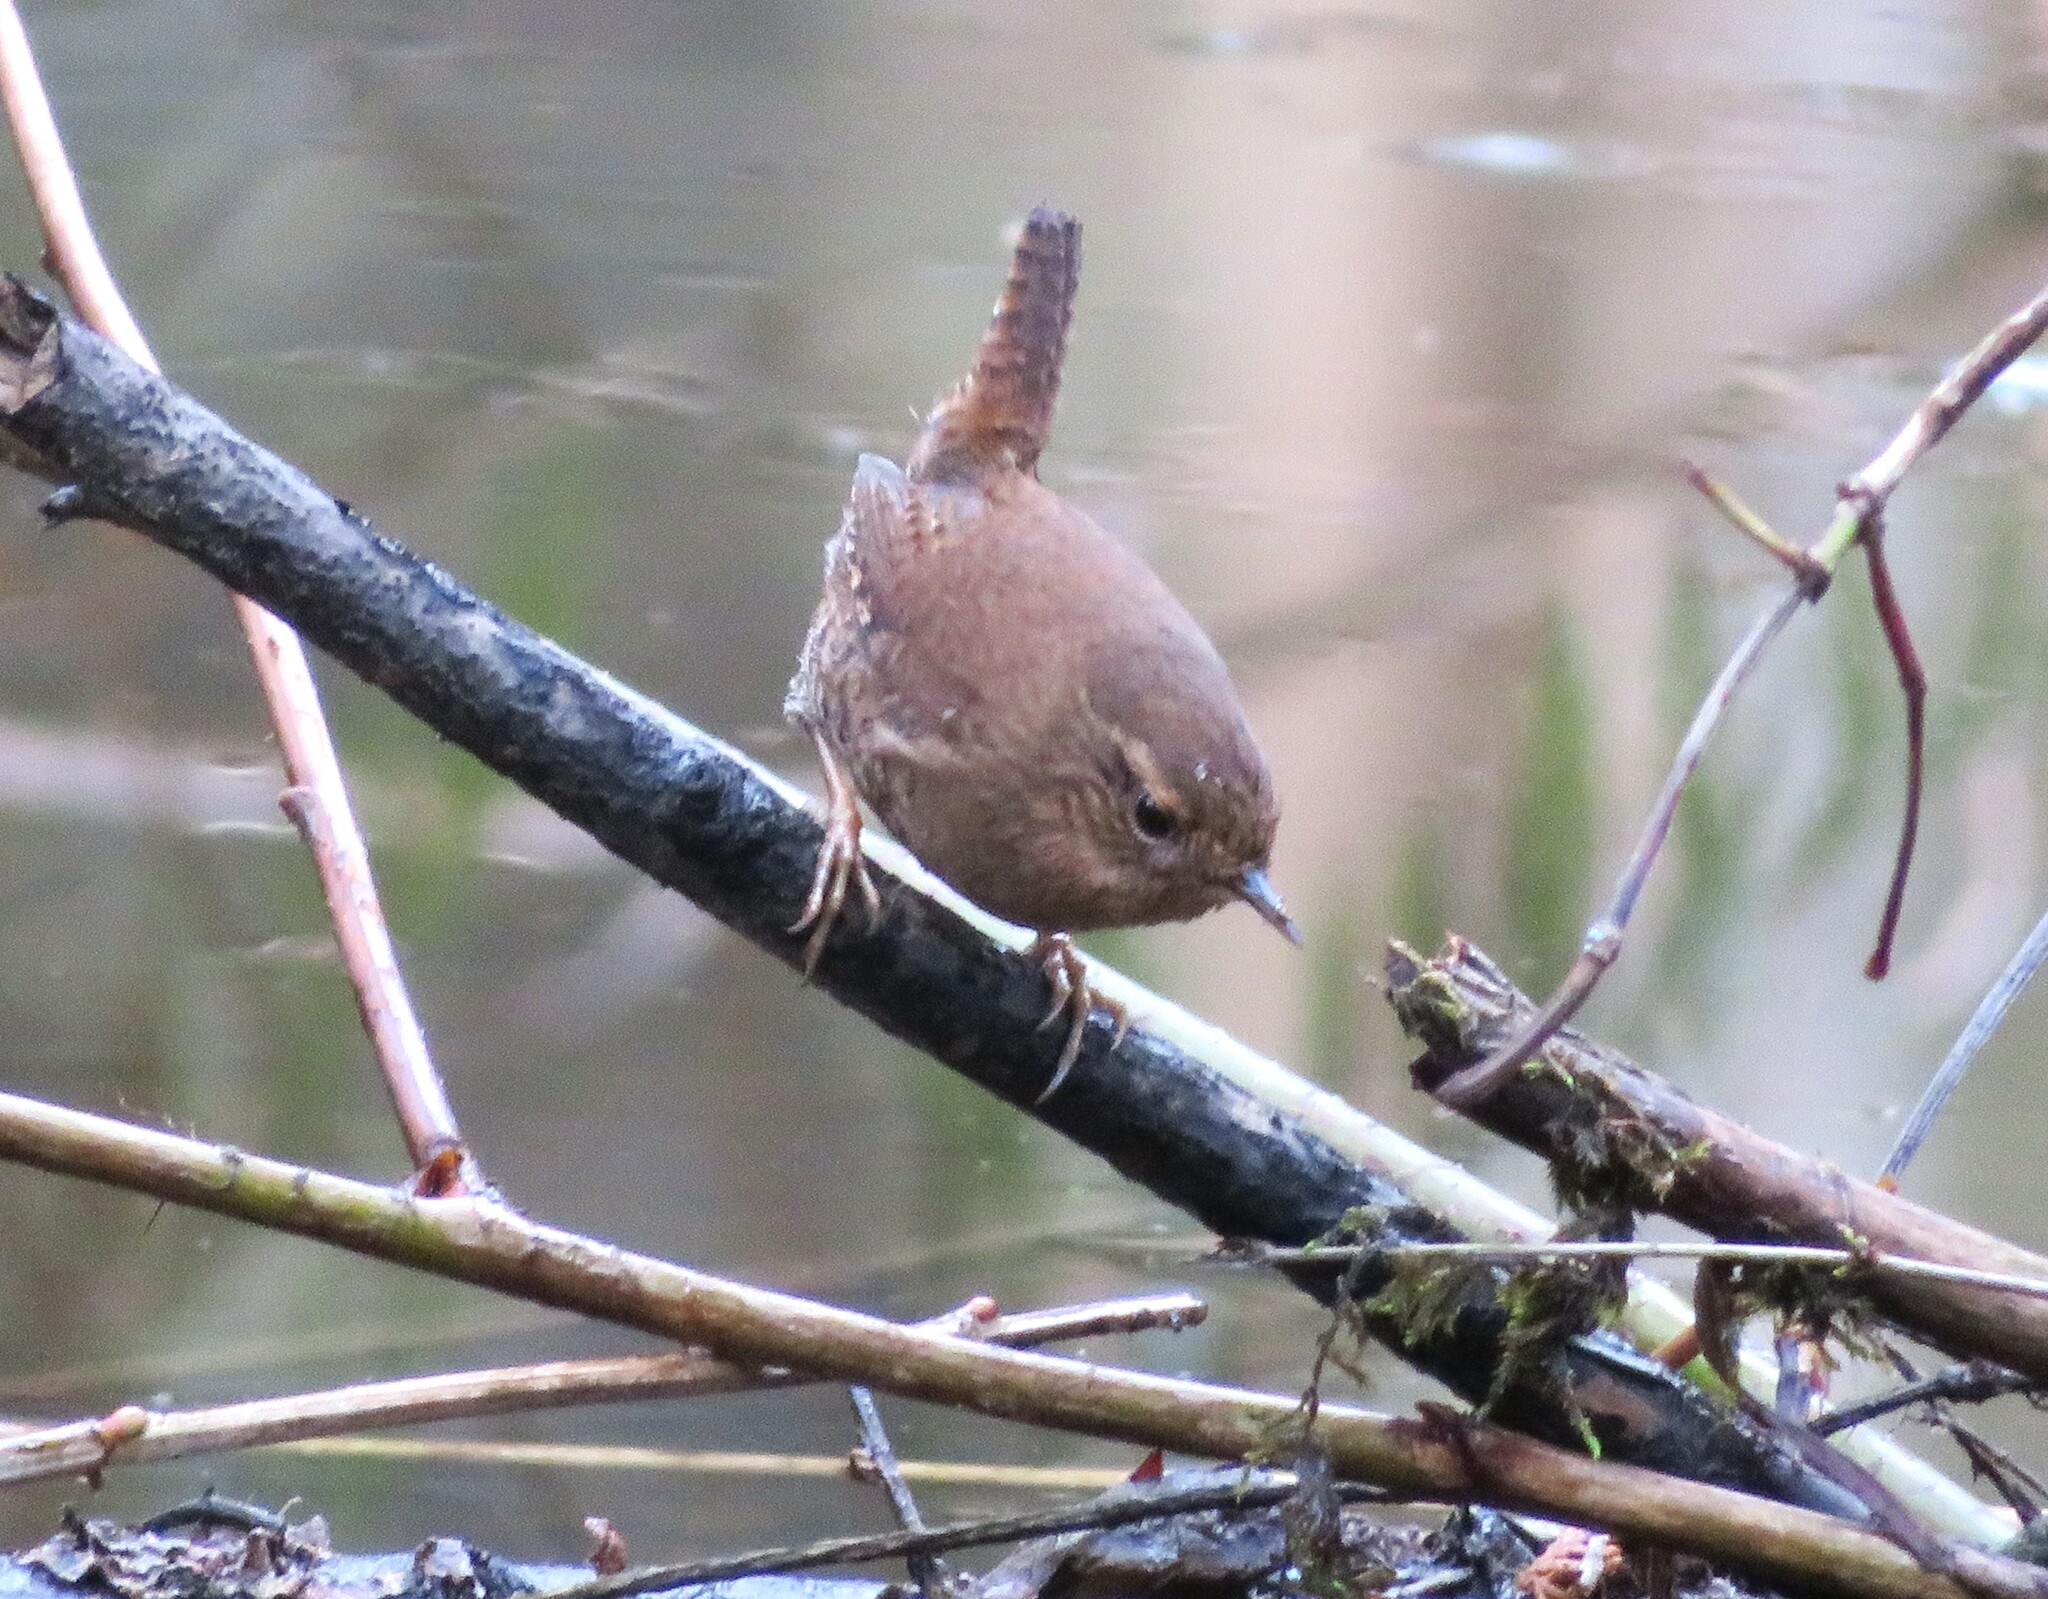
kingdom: Animalia
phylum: Chordata
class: Aves
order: Passeriformes
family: Troglodytidae
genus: Troglodytes
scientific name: Troglodytes pacificus
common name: Pacific wren
